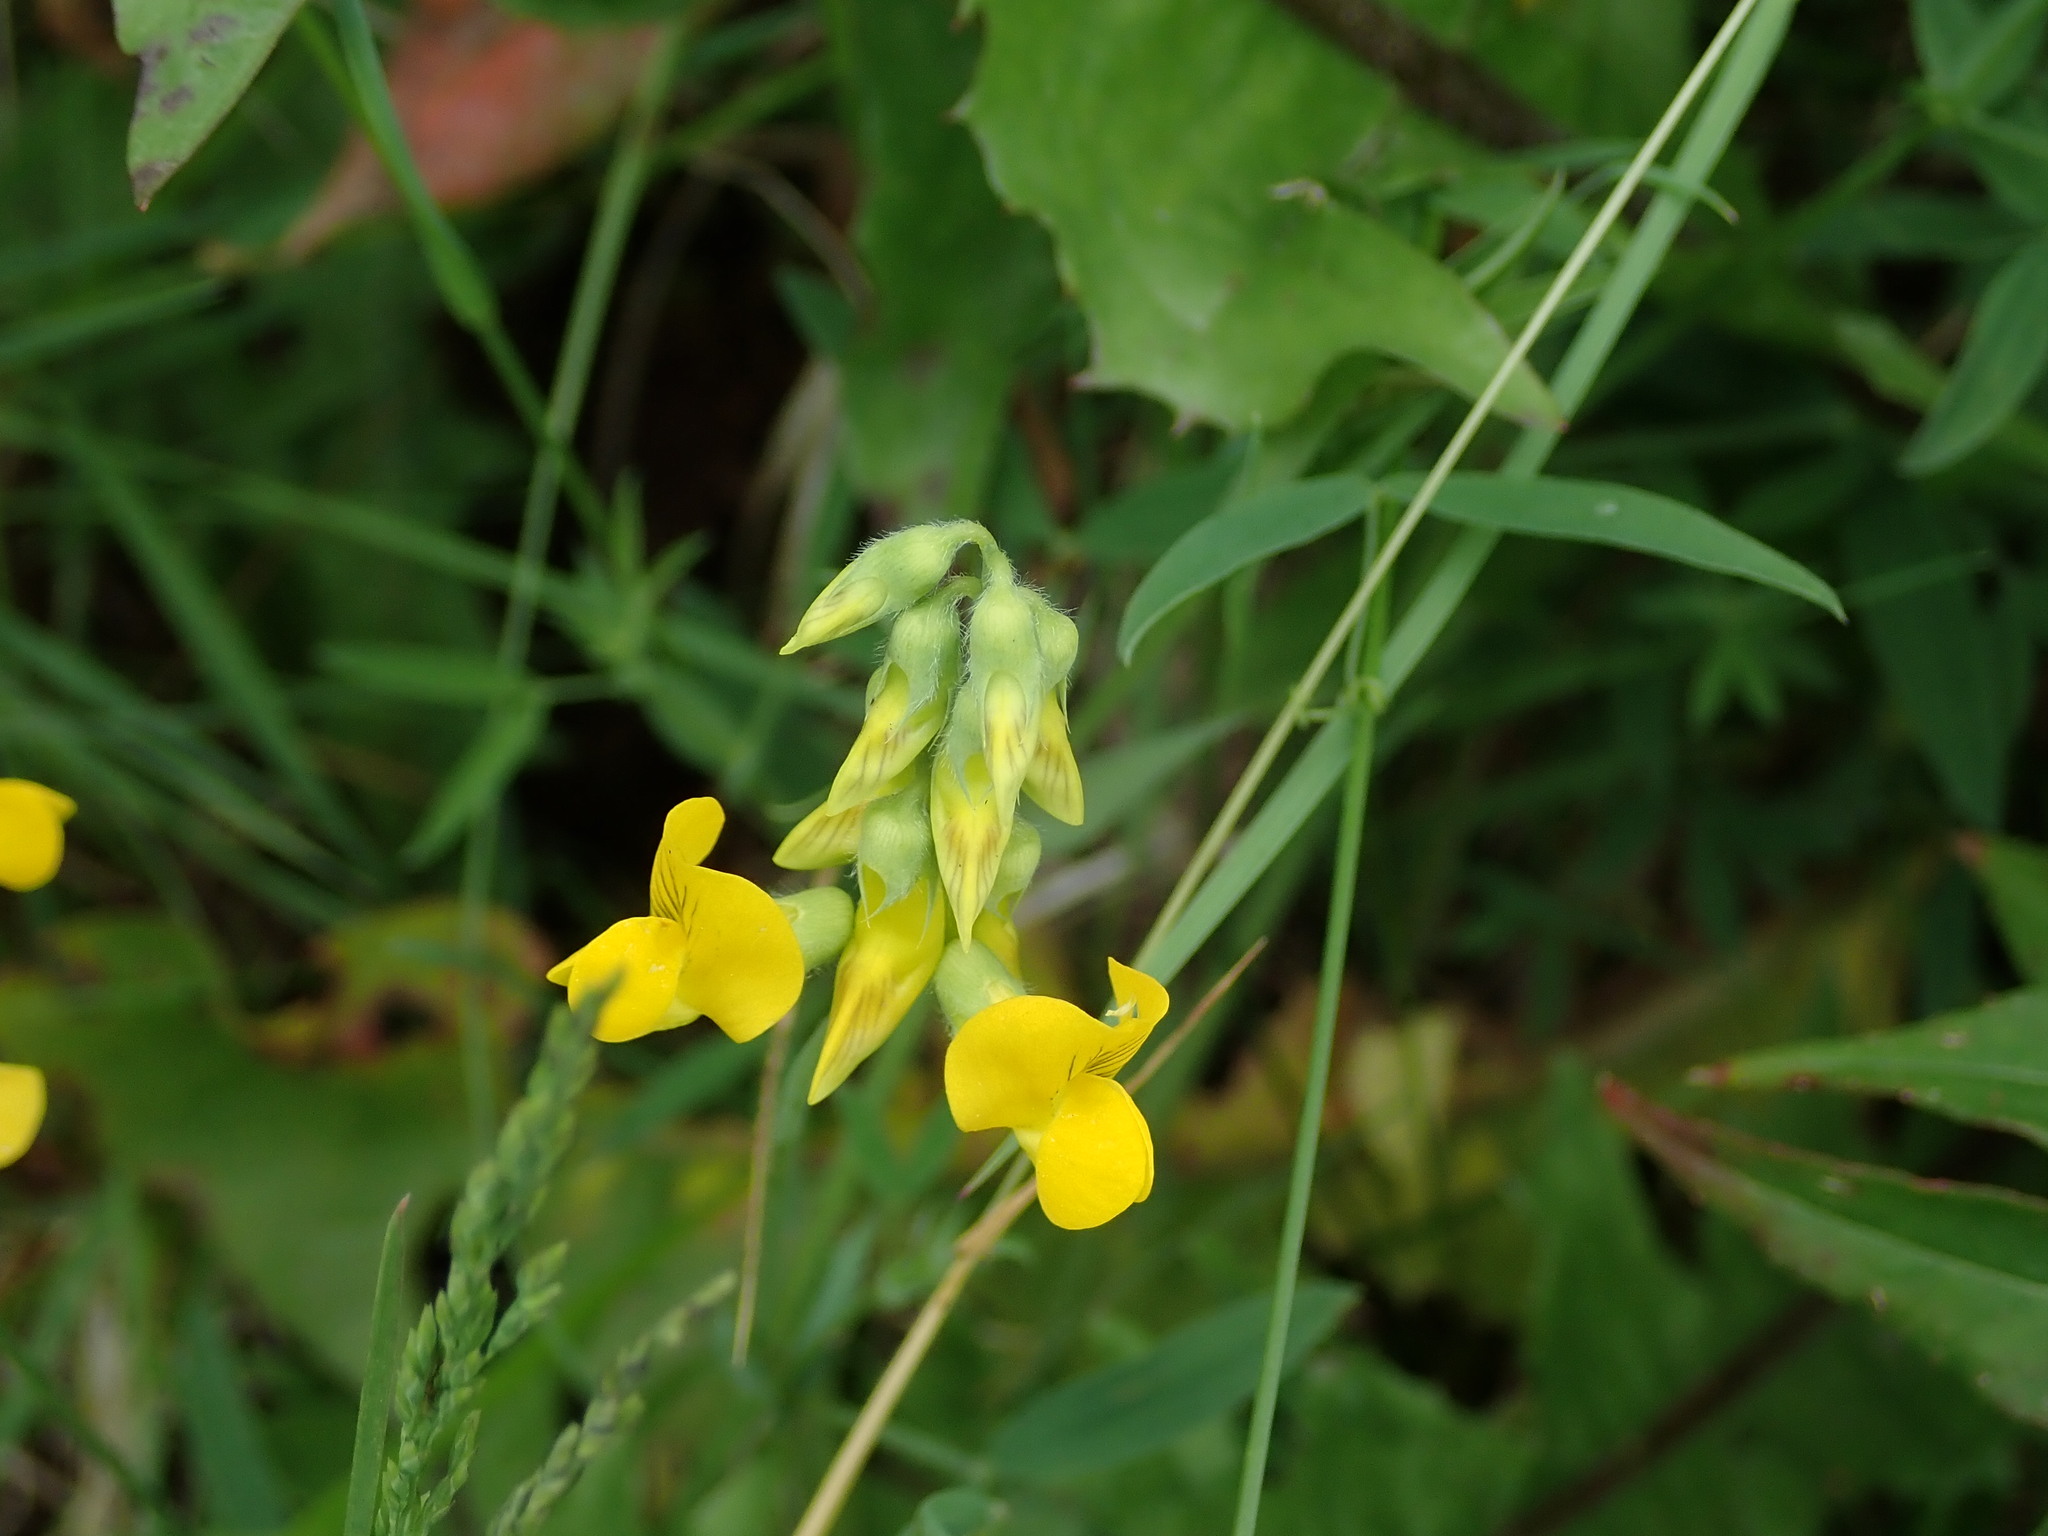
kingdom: Plantae
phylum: Tracheophyta
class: Magnoliopsida
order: Fabales
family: Fabaceae
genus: Lathyrus
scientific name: Lathyrus pratensis
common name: Meadow vetchling
